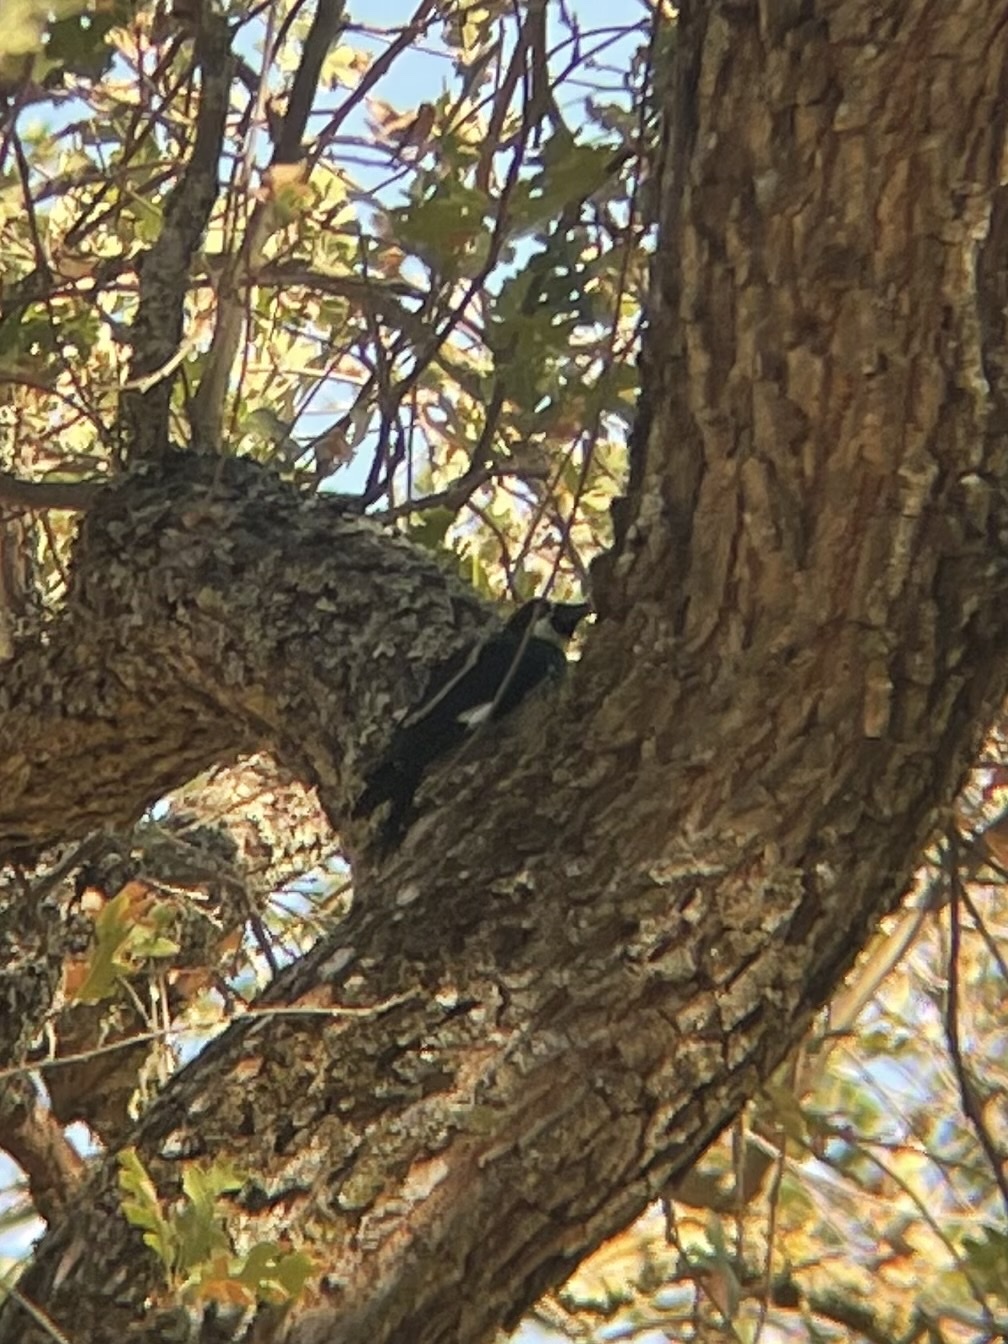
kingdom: Animalia
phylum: Chordata
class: Aves
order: Piciformes
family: Picidae
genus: Melanerpes
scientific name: Melanerpes formicivorus
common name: Acorn woodpecker
